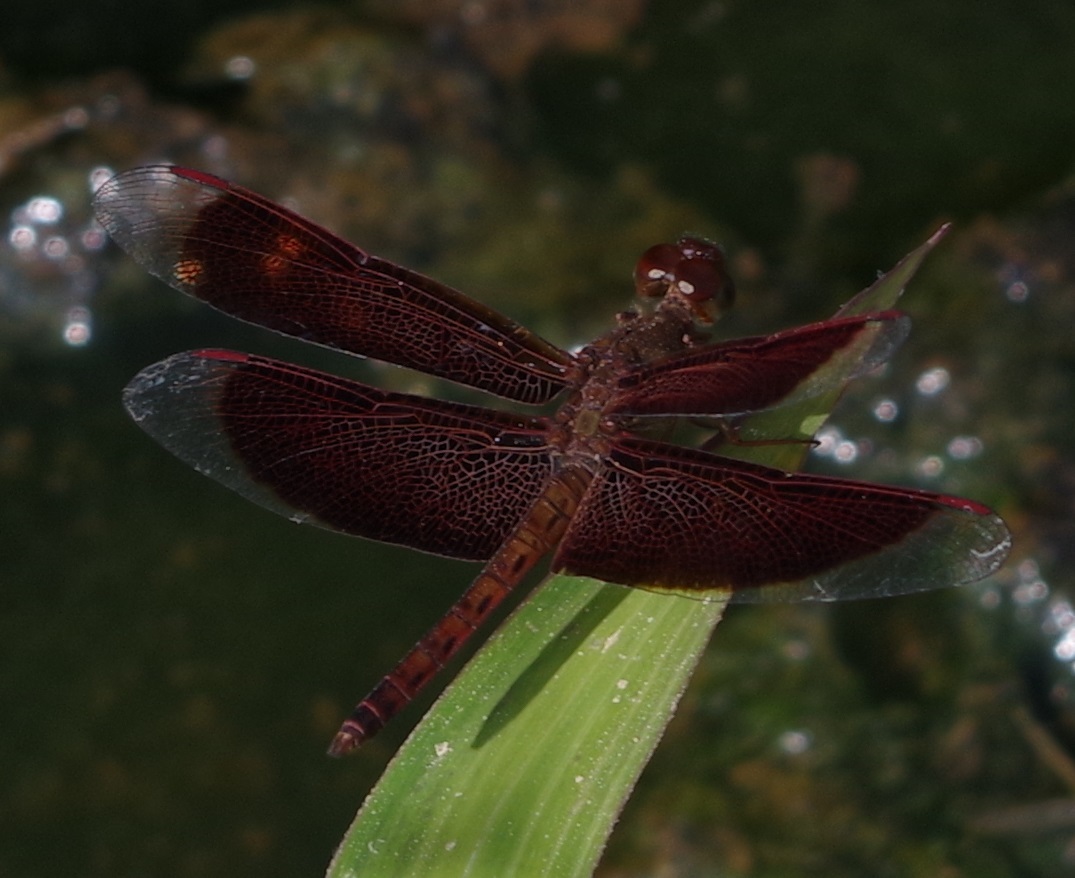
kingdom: Animalia
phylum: Arthropoda
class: Insecta
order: Odonata
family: Libellulidae
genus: Neurothemis
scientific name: Neurothemis fluctuans
